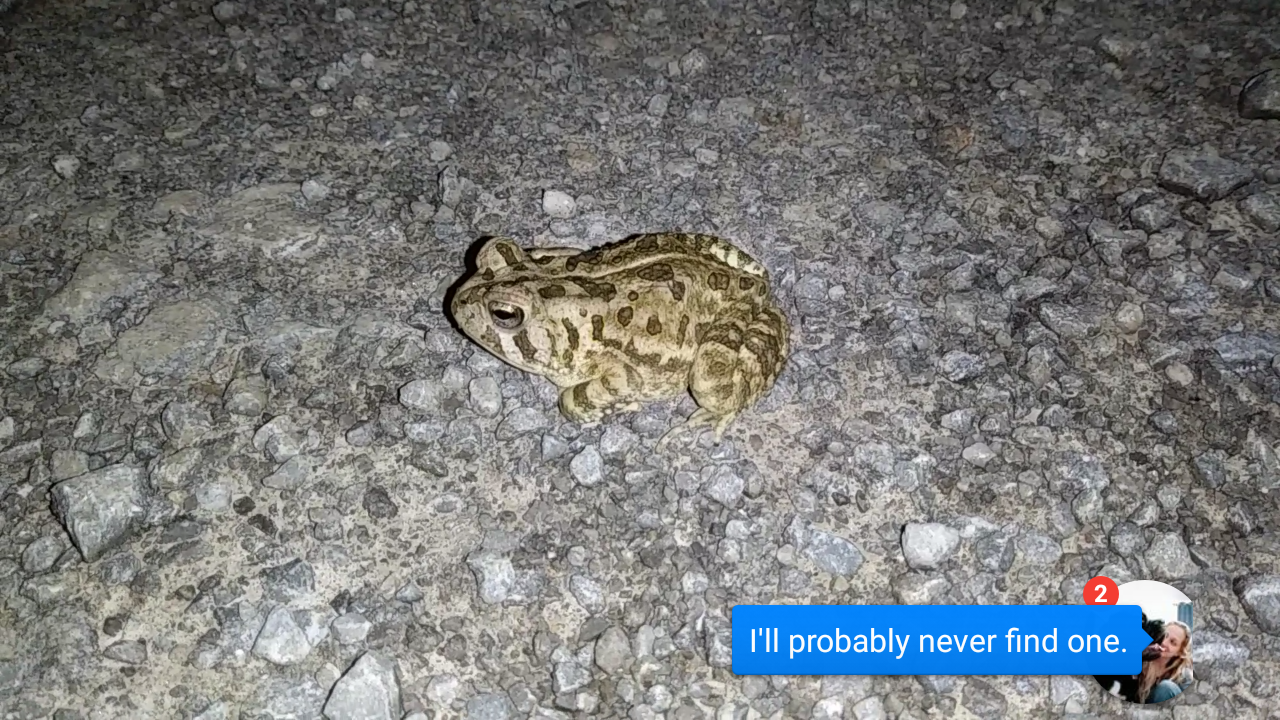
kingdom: Animalia
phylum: Chordata
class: Amphibia
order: Anura
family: Bufonidae
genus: Anaxyrus
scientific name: Anaxyrus fowleri
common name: Fowler's toad
